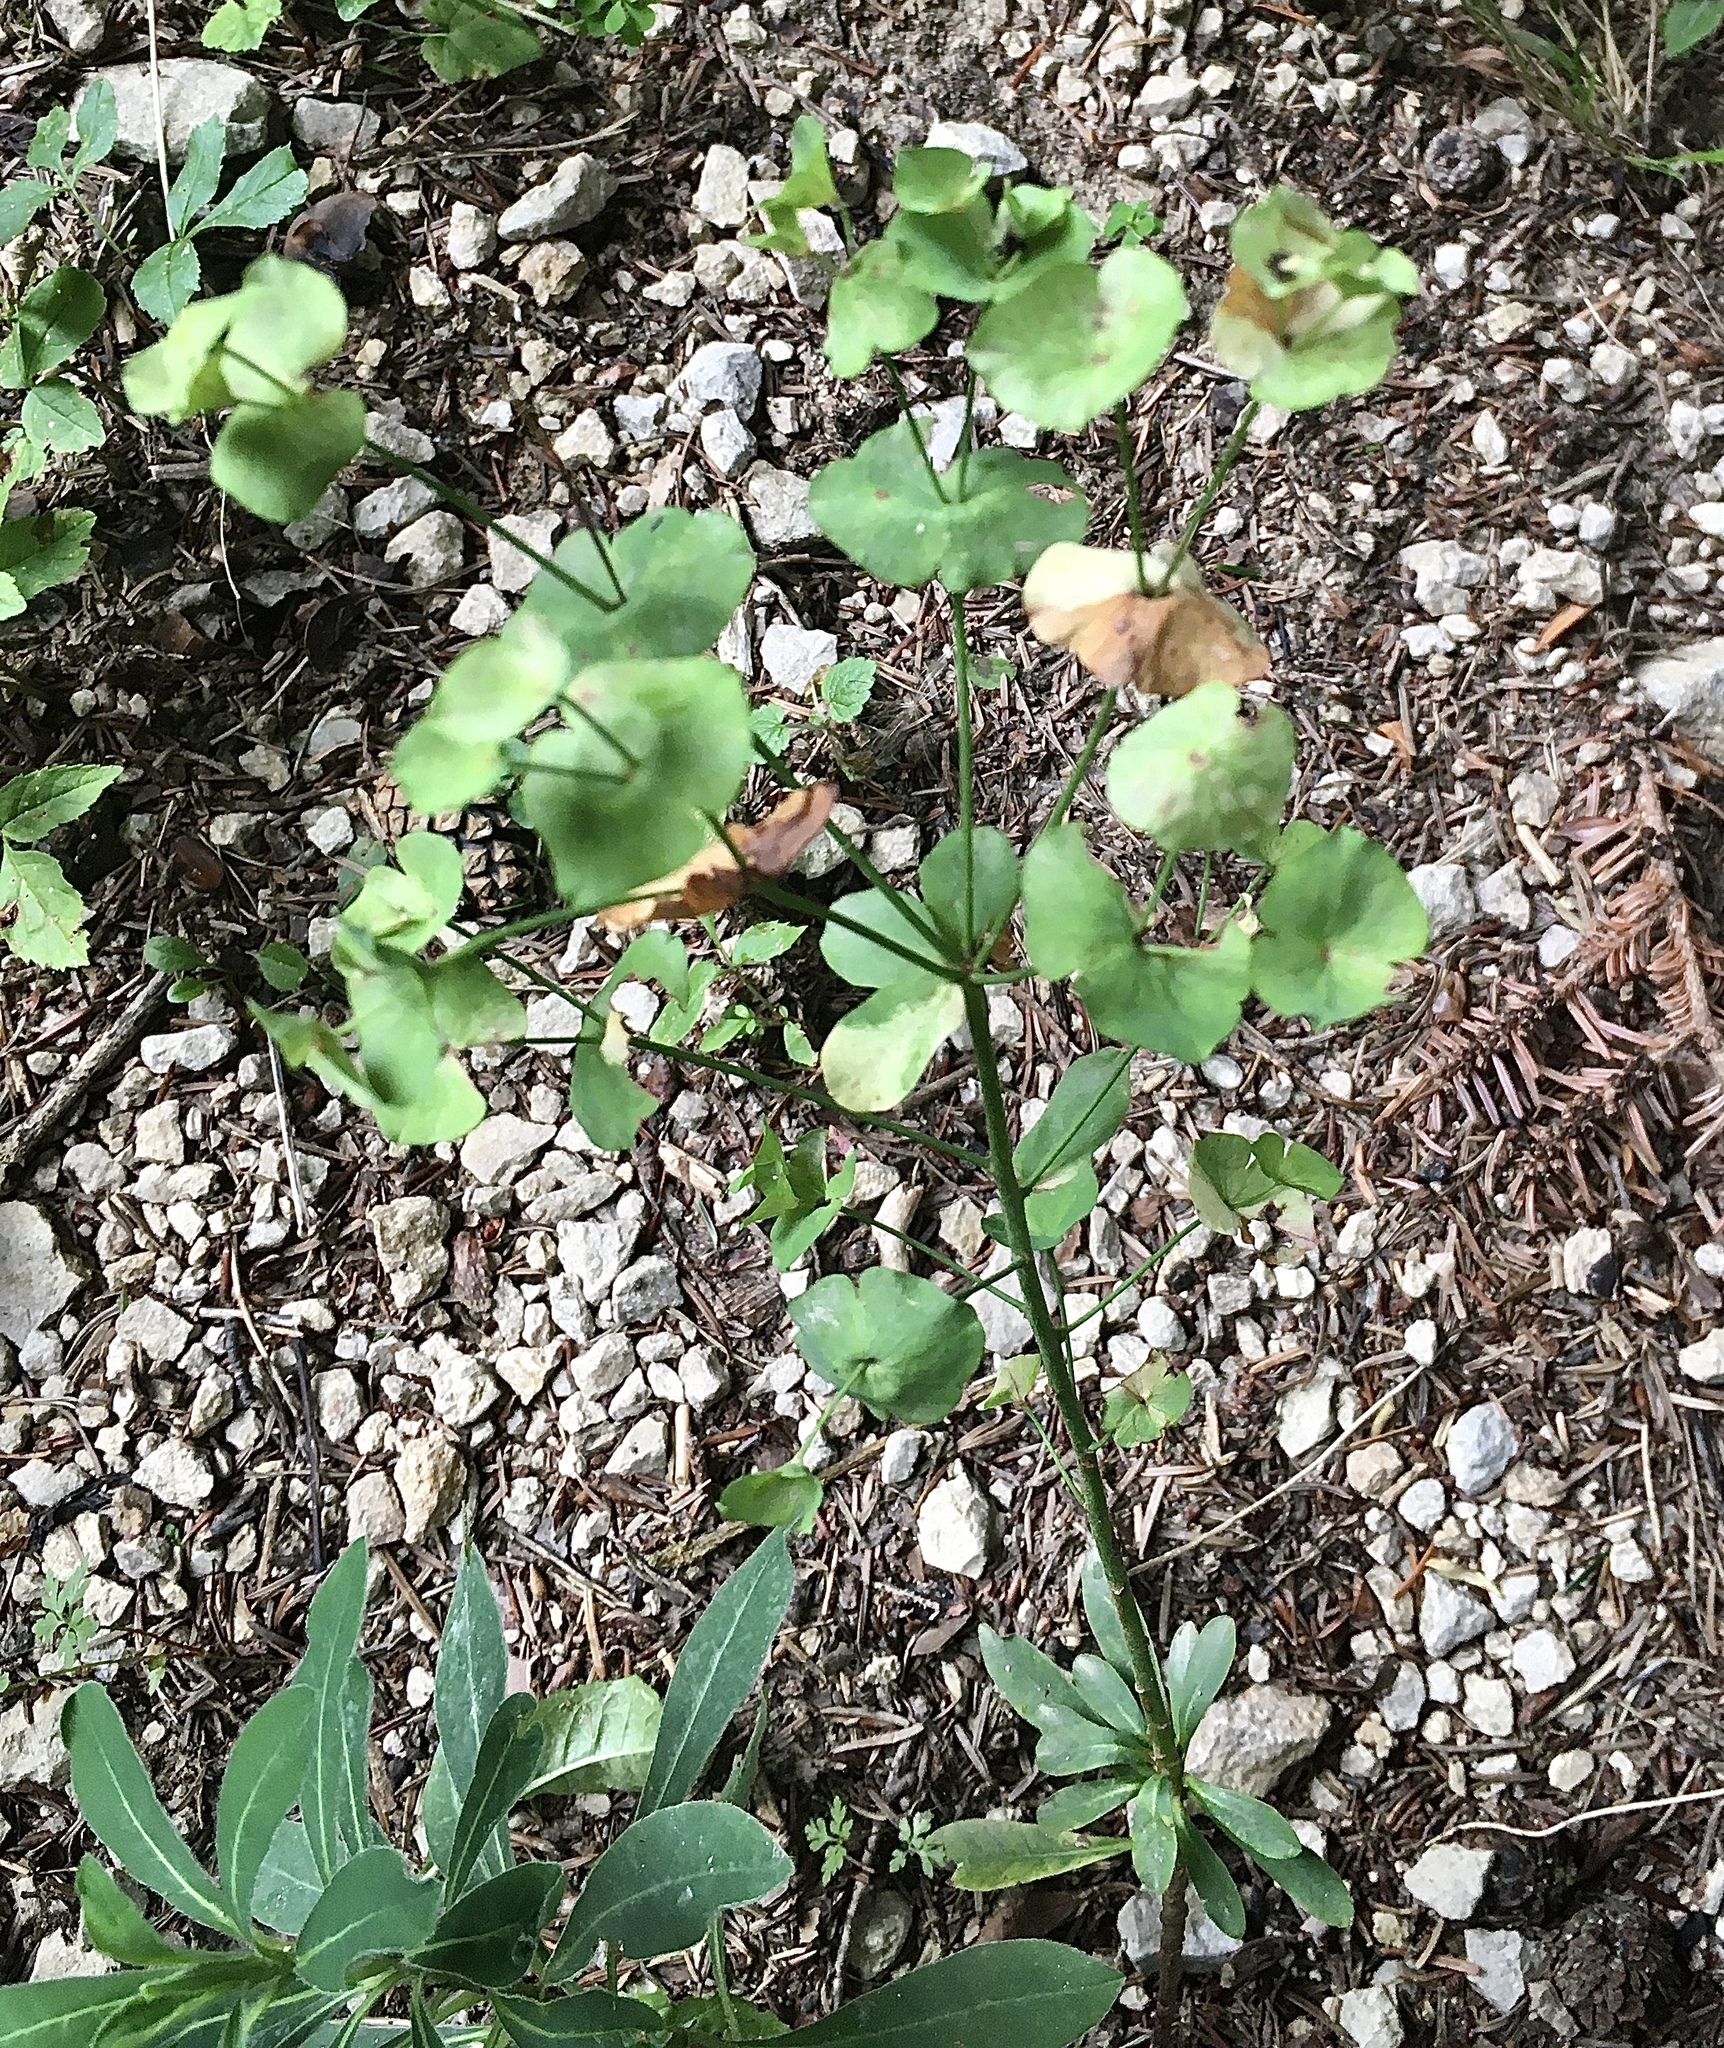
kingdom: Plantae
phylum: Tracheophyta
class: Magnoliopsida
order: Malpighiales
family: Euphorbiaceae
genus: Euphorbia
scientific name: Euphorbia amygdaloides
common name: Wood spurge
